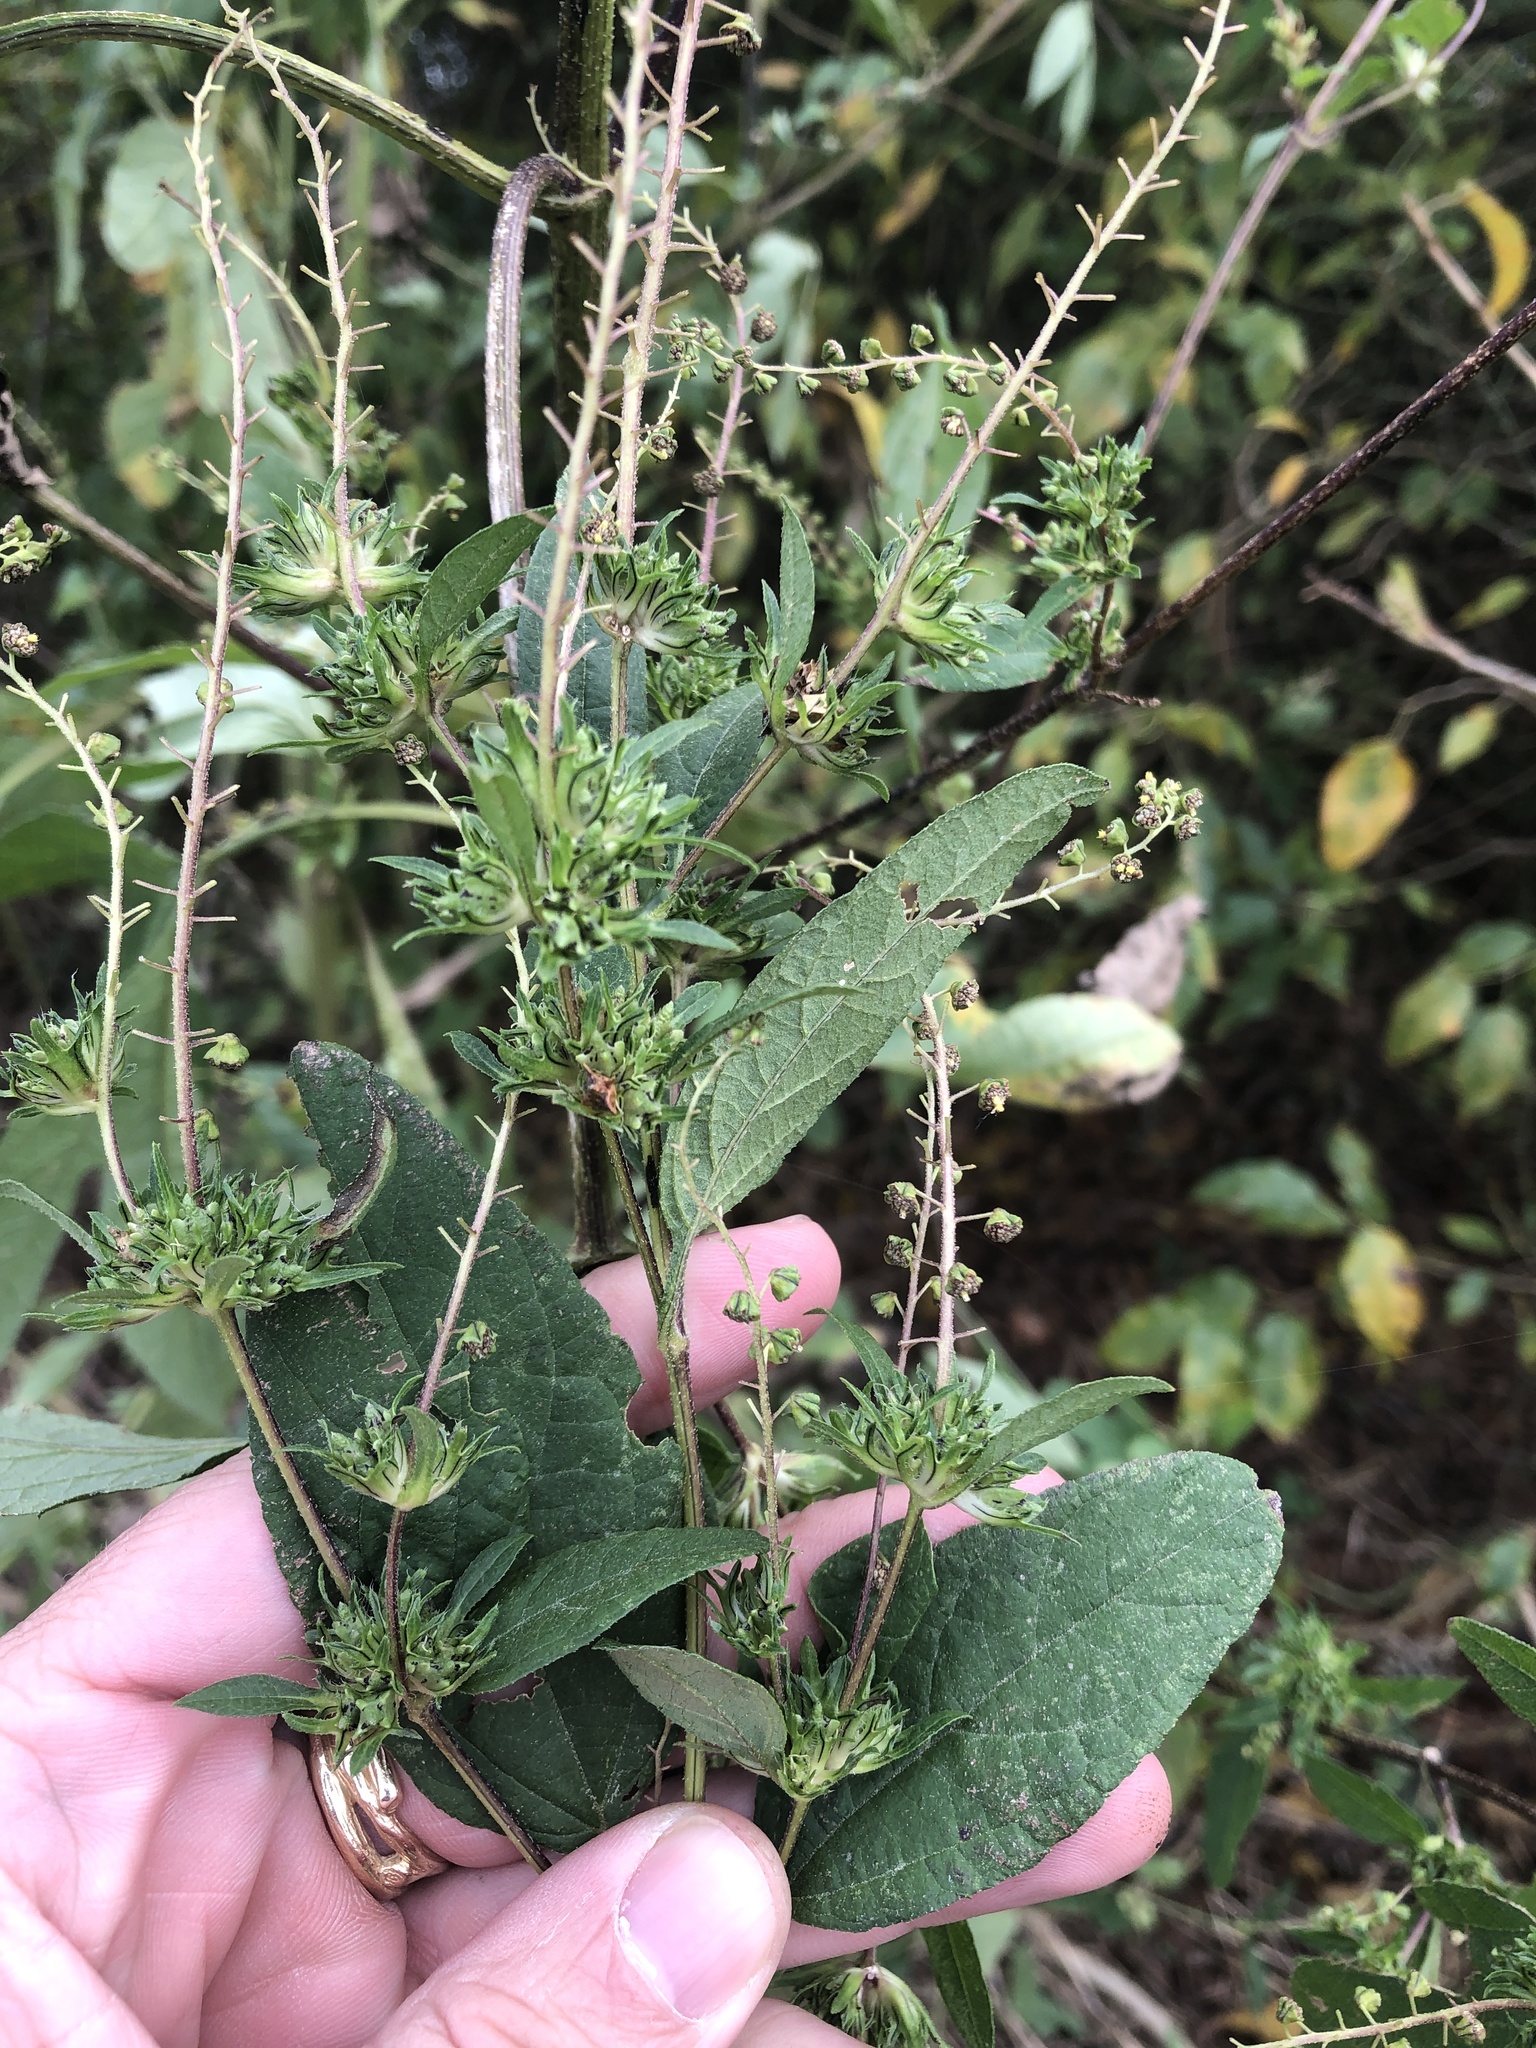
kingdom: Plantae
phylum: Tracheophyta
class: Magnoliopsida
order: Asterales
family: Asteraceae
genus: Ambrosia
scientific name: Ambrosia trifida
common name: Giant ragweed
